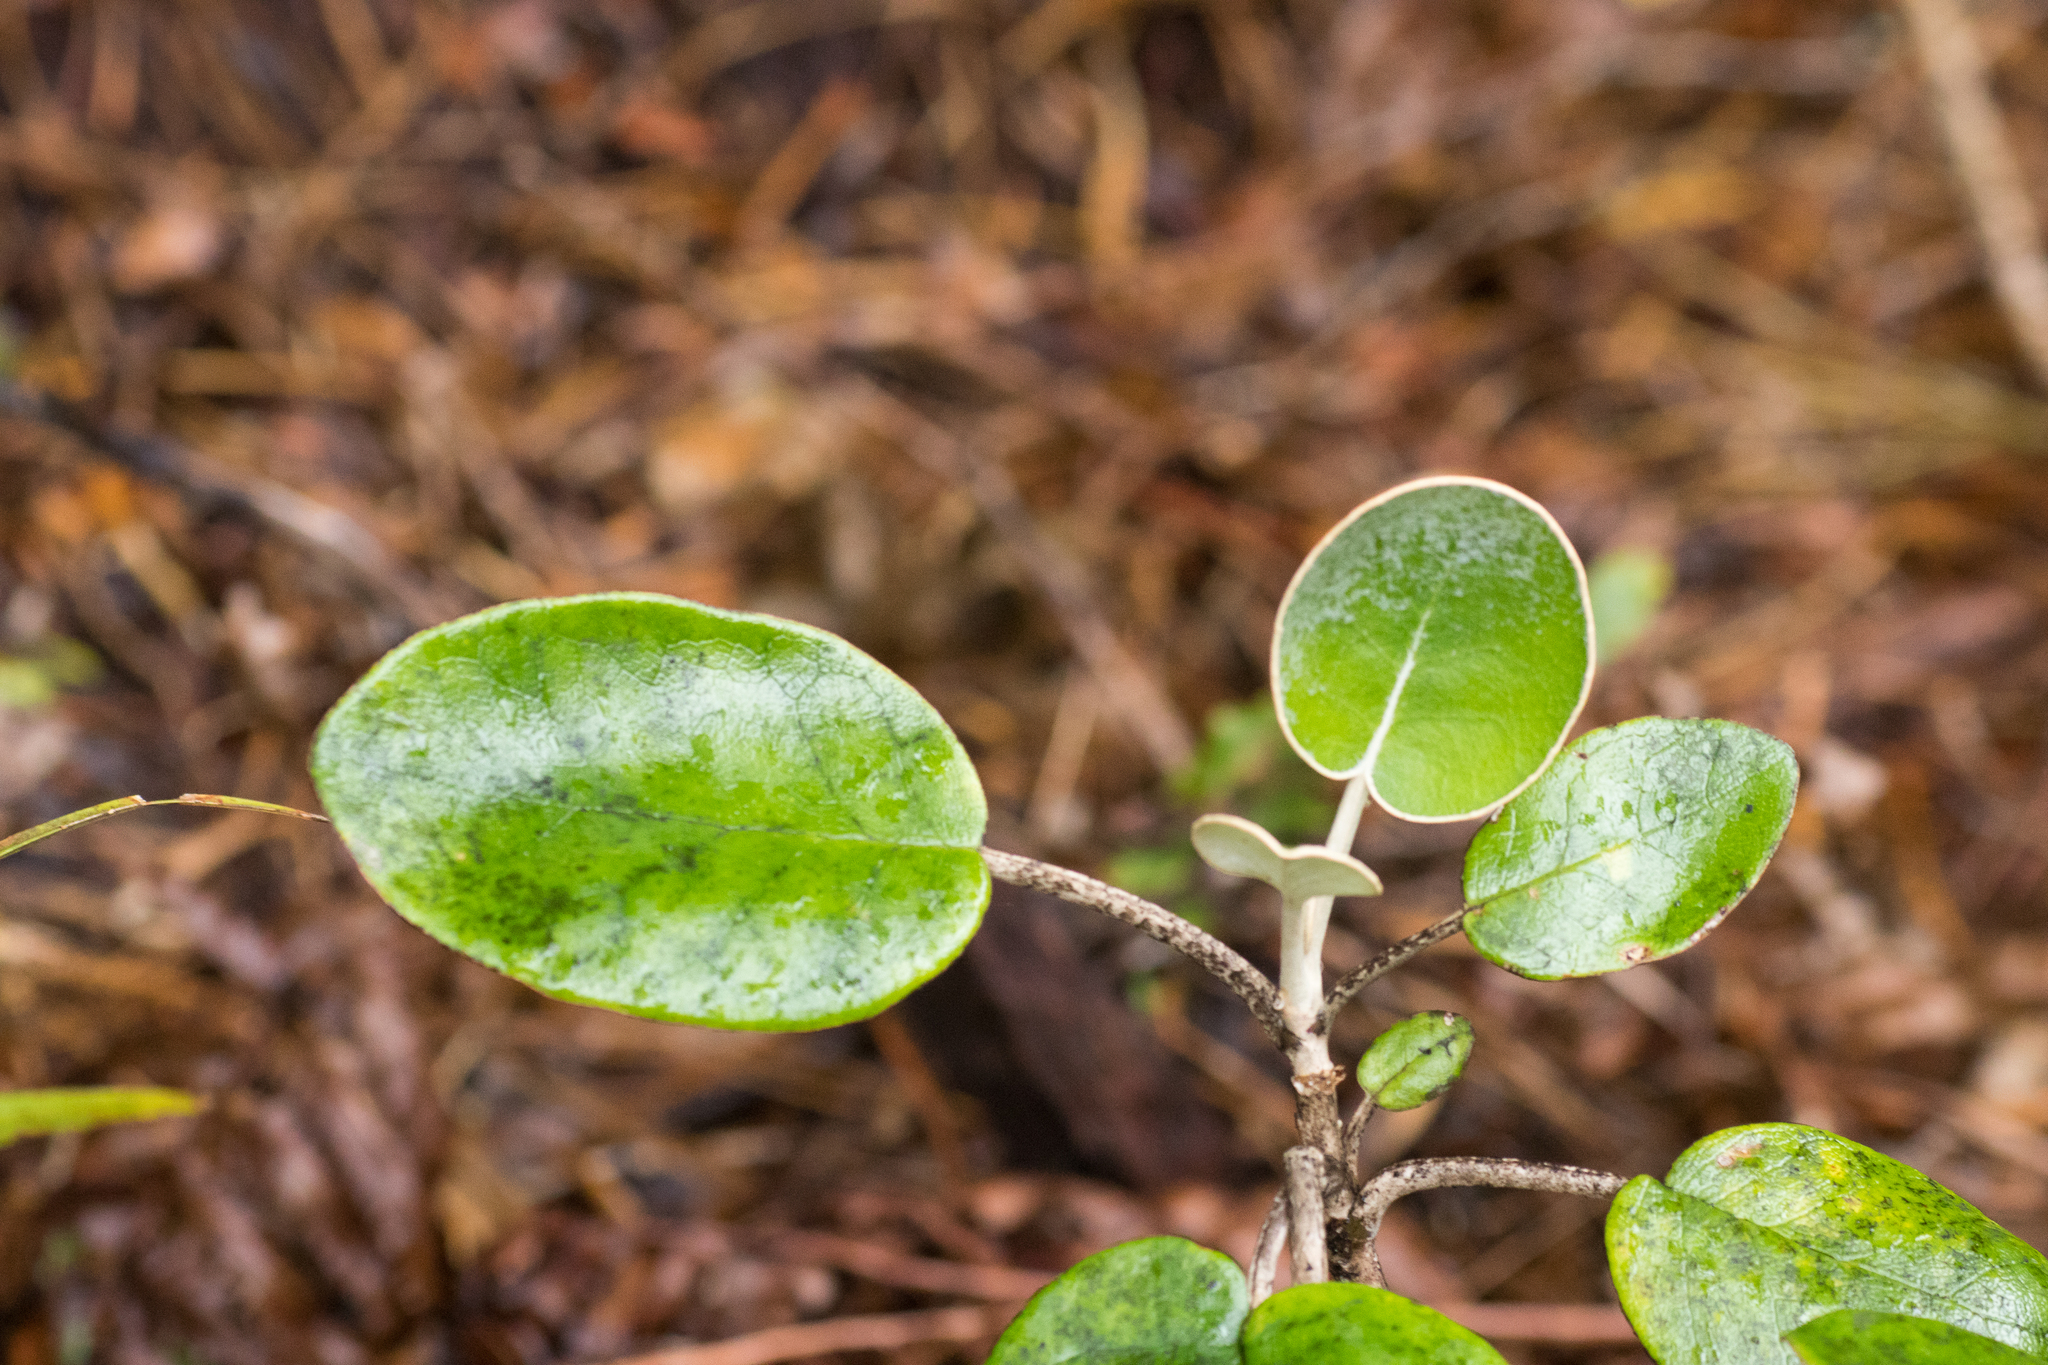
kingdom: Plantae
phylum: Tracheophyta
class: Magnoliopsida
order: Asterales
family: Asteraceae
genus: Brachyglottis
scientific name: Brachyglottis rotundifolia
